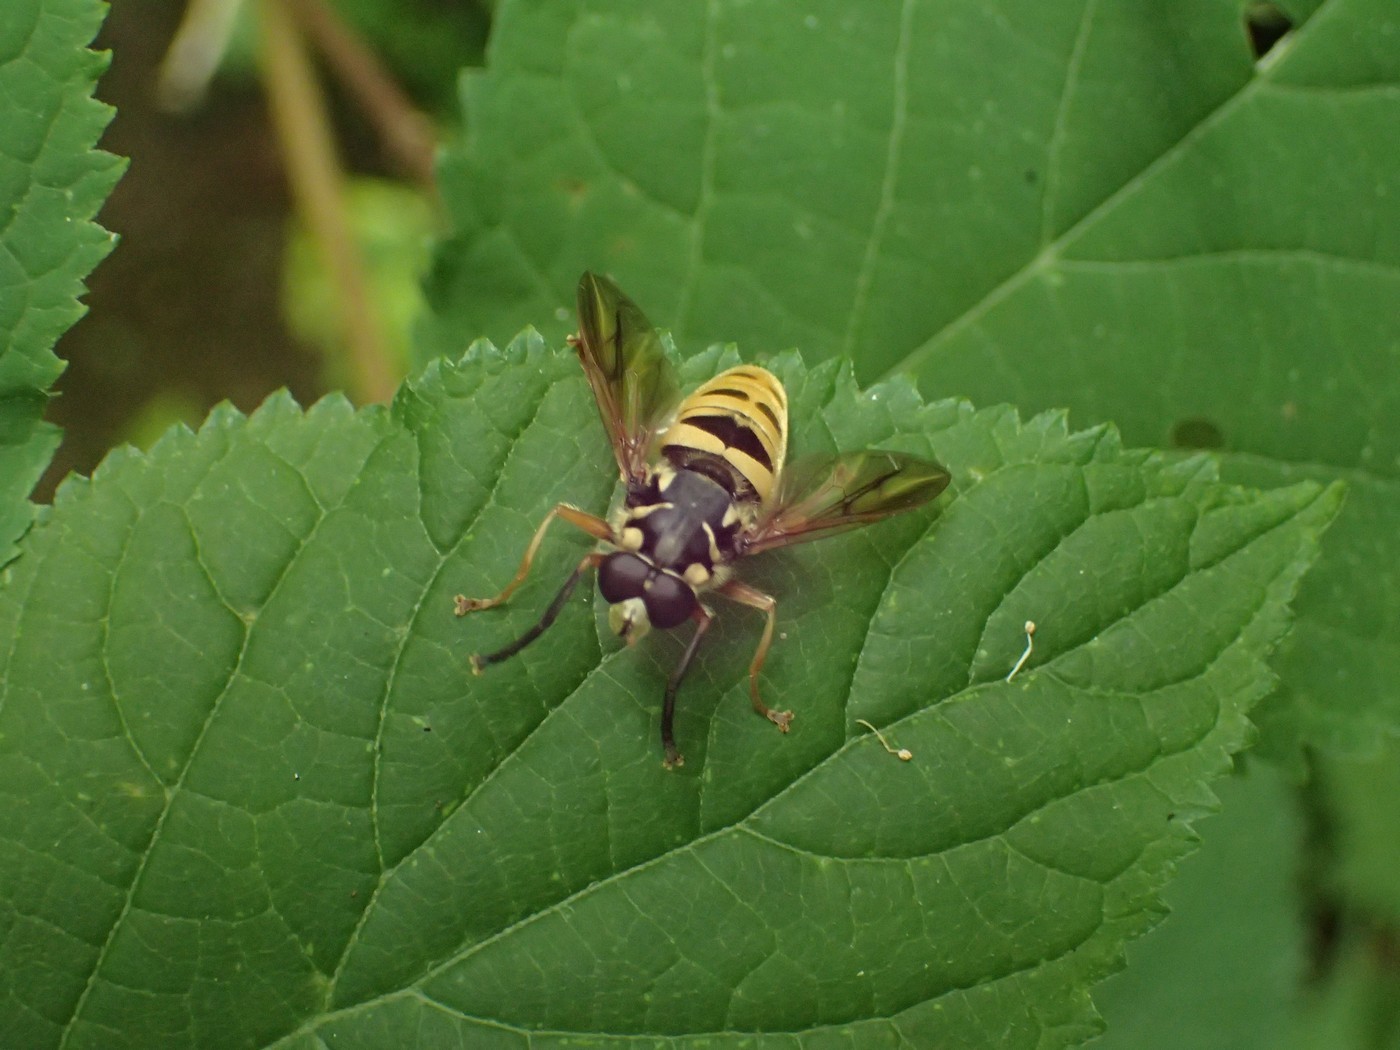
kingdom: Animalia
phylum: Arthropoda
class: Insecta
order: Diptera
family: Syrphidae
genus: Temnostoma
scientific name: Temnostoma excentricum
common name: Black-spotted falsehorn
